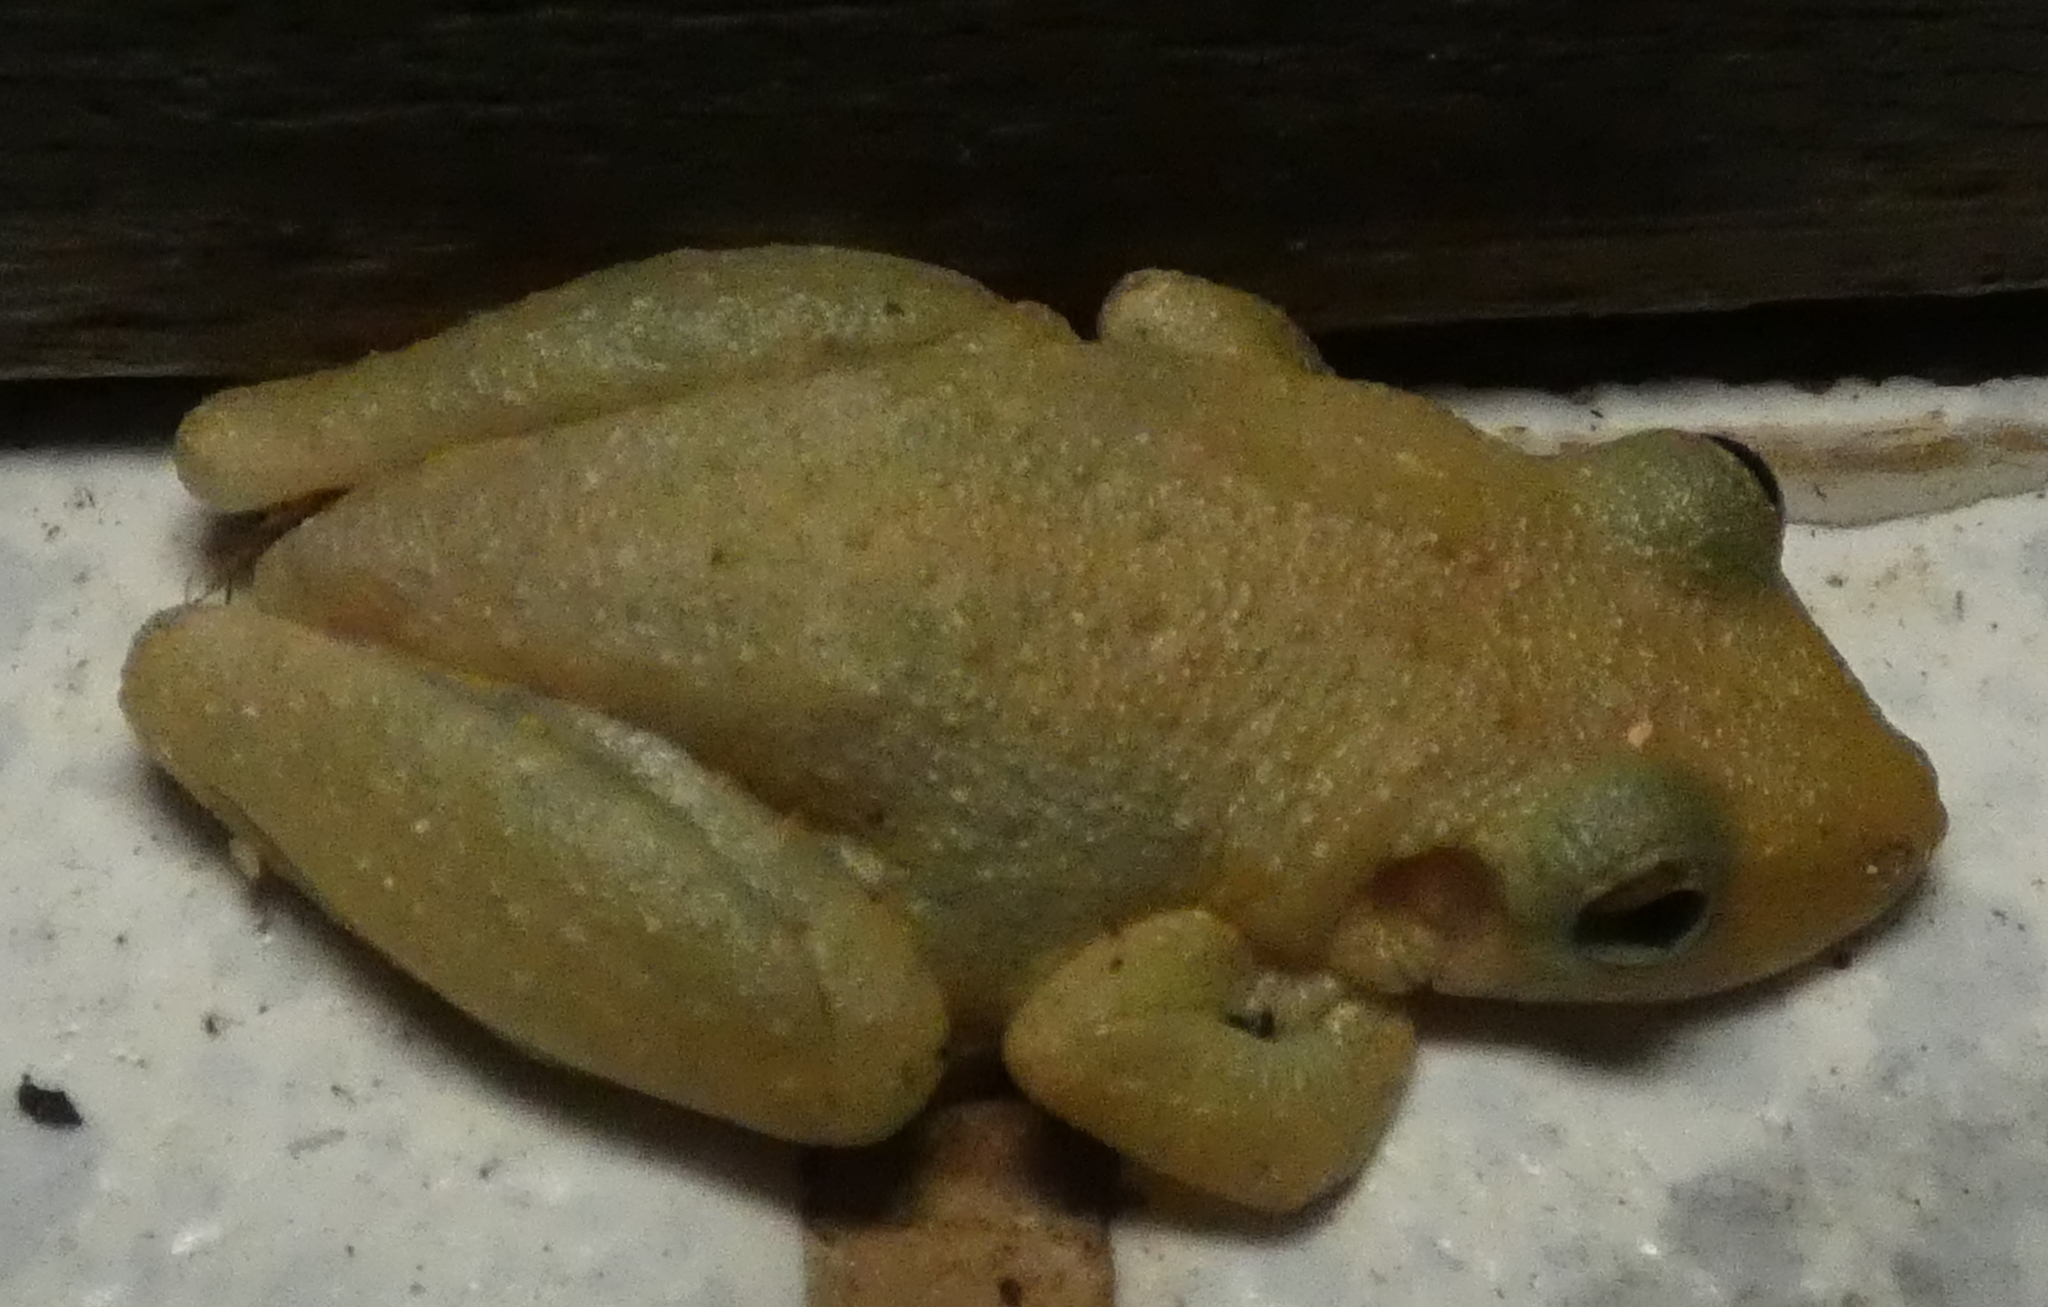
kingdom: Animalia
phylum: Chordata
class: Amphibia
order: Anura
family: Hylidae
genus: Scinax
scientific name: Scinax x-signatus
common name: Venezuela snouted treefrog
